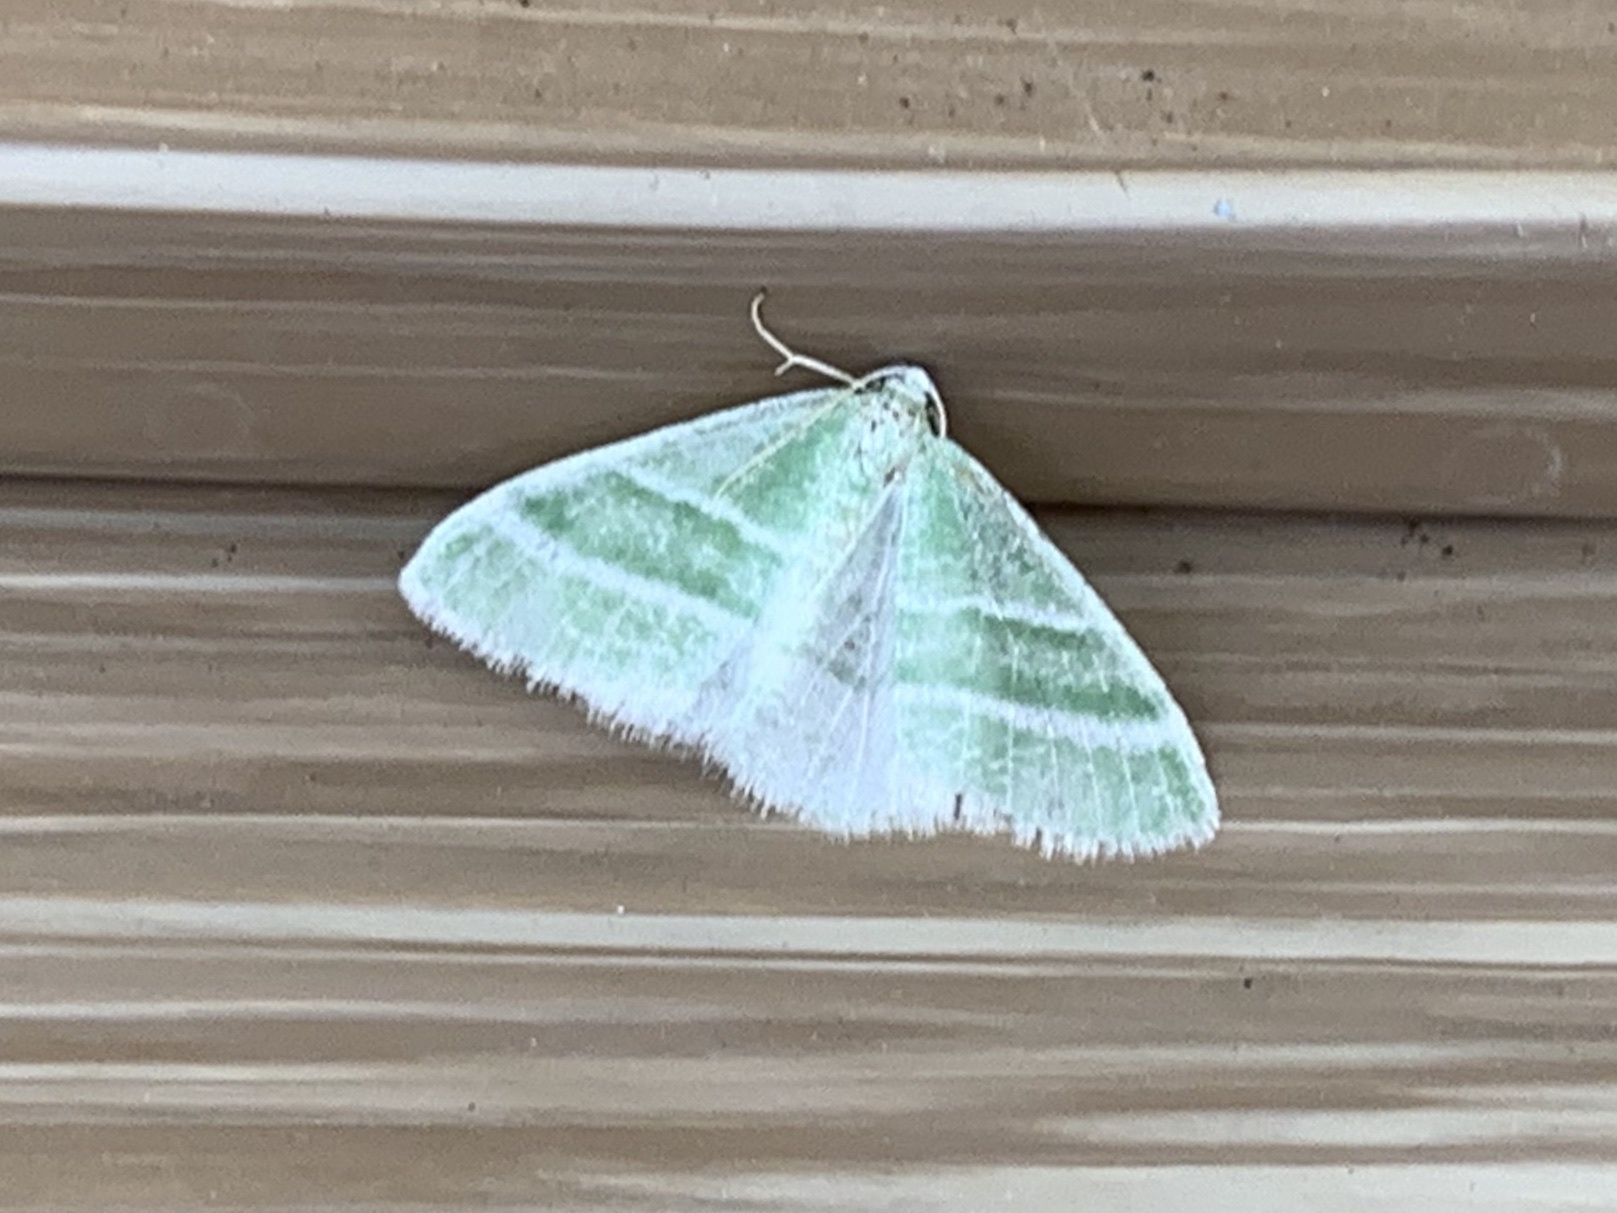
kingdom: Animalia
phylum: Arthropoda
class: Insecta
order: Lepidoptera
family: Geometridae
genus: Nemoria
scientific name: Nemoria diamesa
